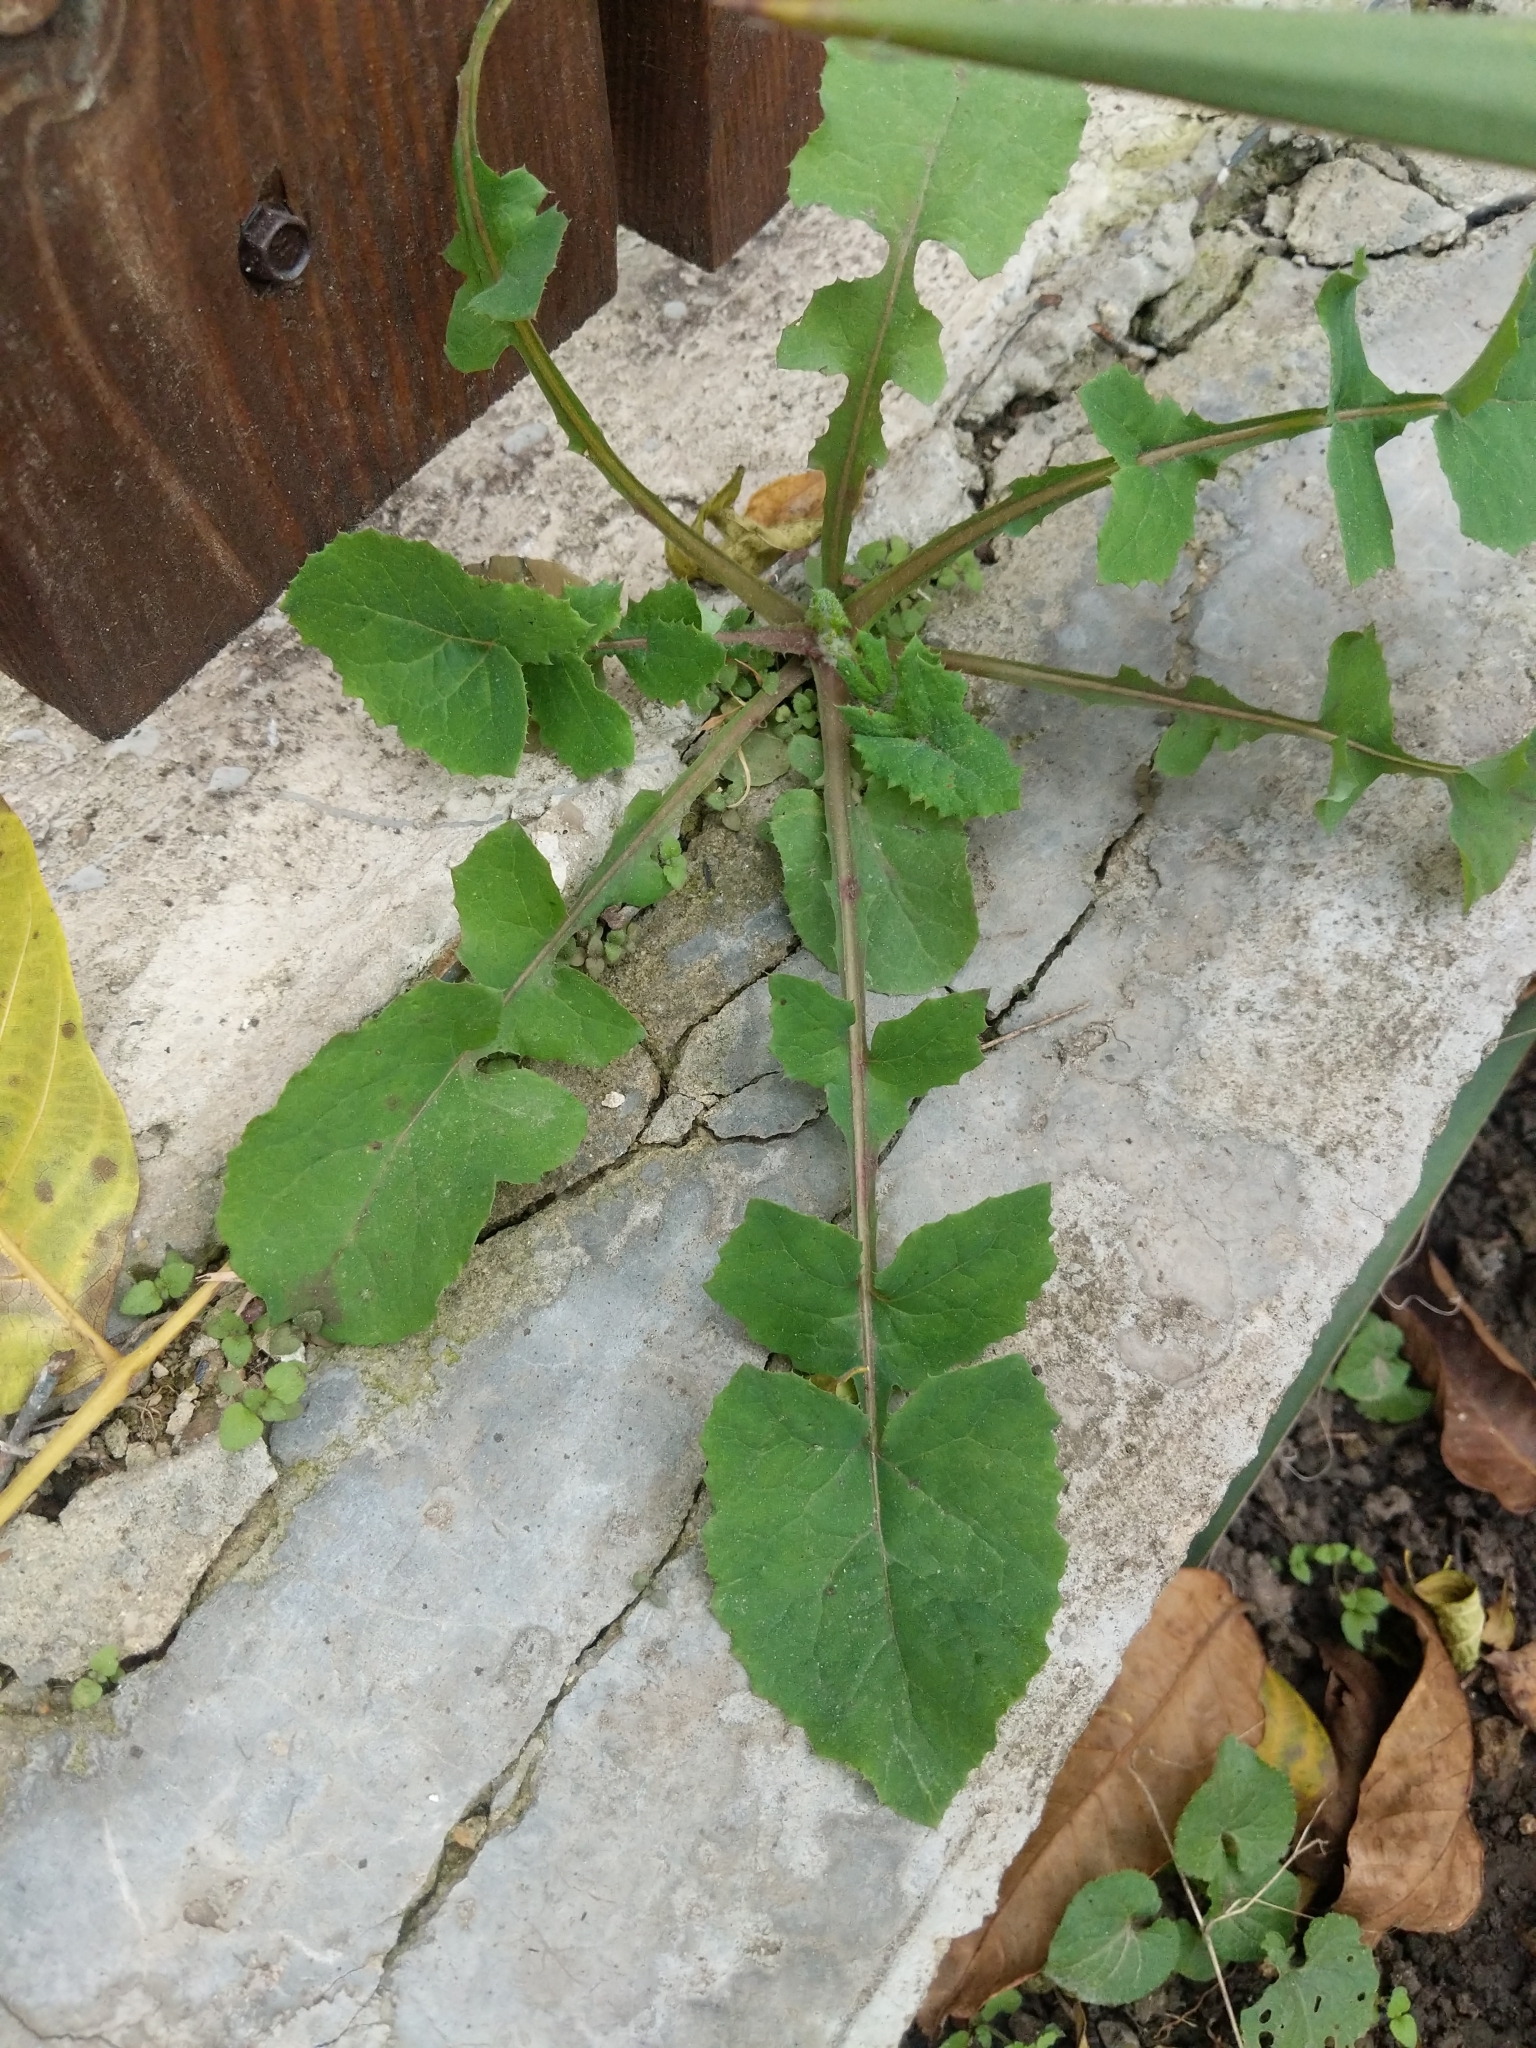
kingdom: Plantae
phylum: Tracheophyta
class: Magnoliopsida
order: Asterales
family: Asteraceae
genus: Sonchus
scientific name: Sonchus oleraceus
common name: Common sowthistle
